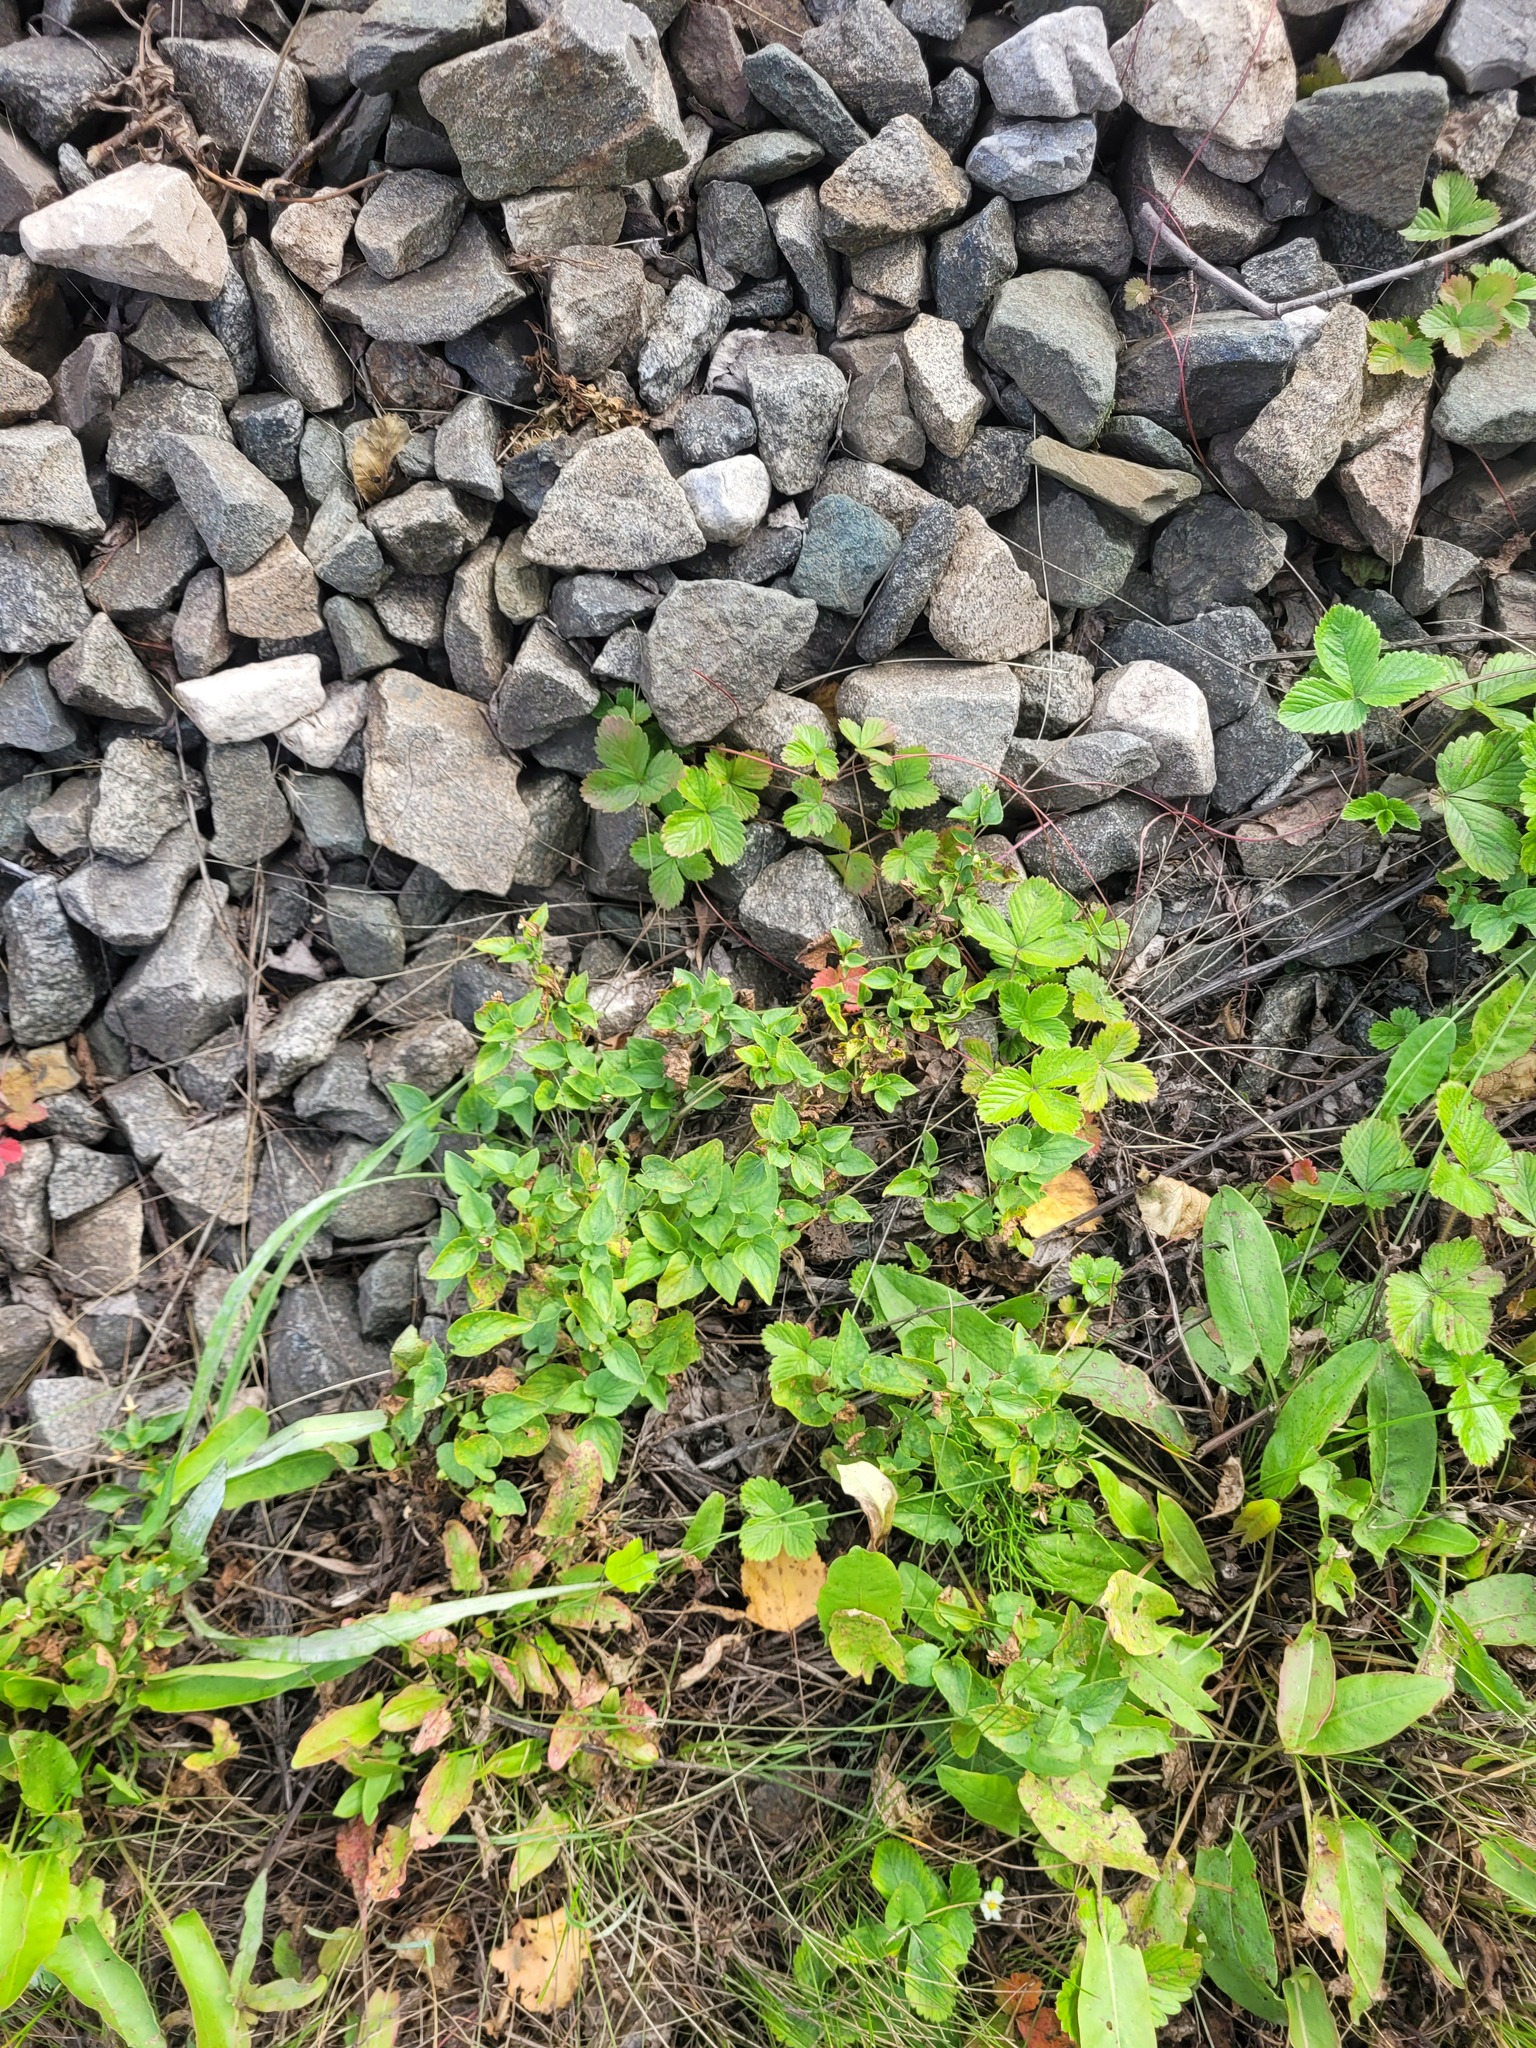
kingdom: Plantae
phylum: Tracheophyta
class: Magnoliopsida
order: Malpighiales
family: Violaceae
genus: Viola
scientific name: Viola canina
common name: Heath dog-violet
